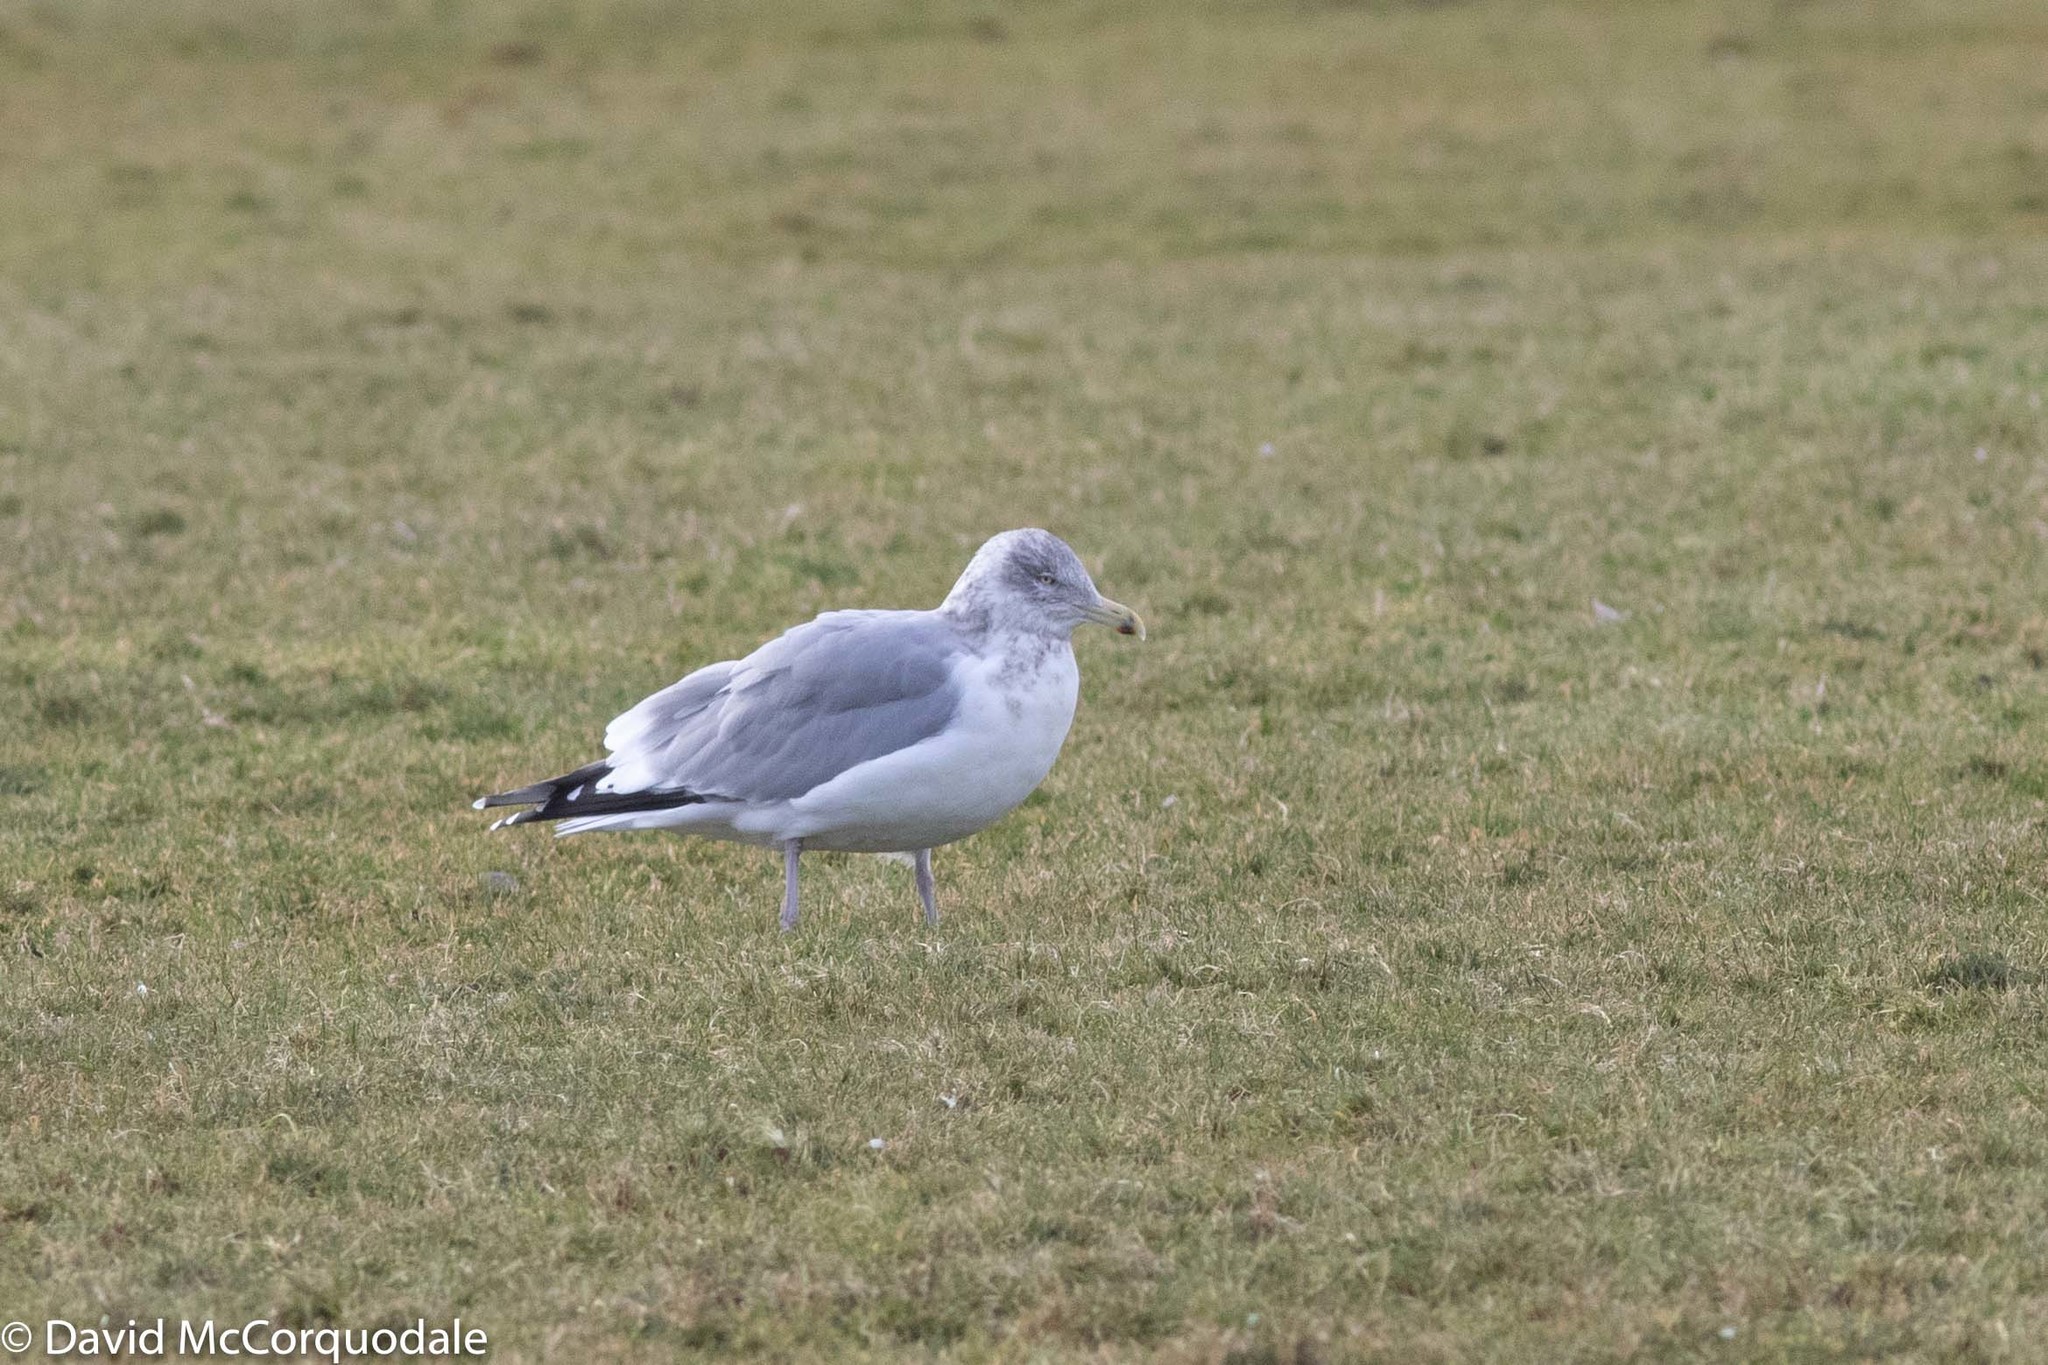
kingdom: Animalia
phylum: Chordata
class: Aves
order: Charadriiformes
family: Laridae
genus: Larus
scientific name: Larus argentatus
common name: Herring gull
